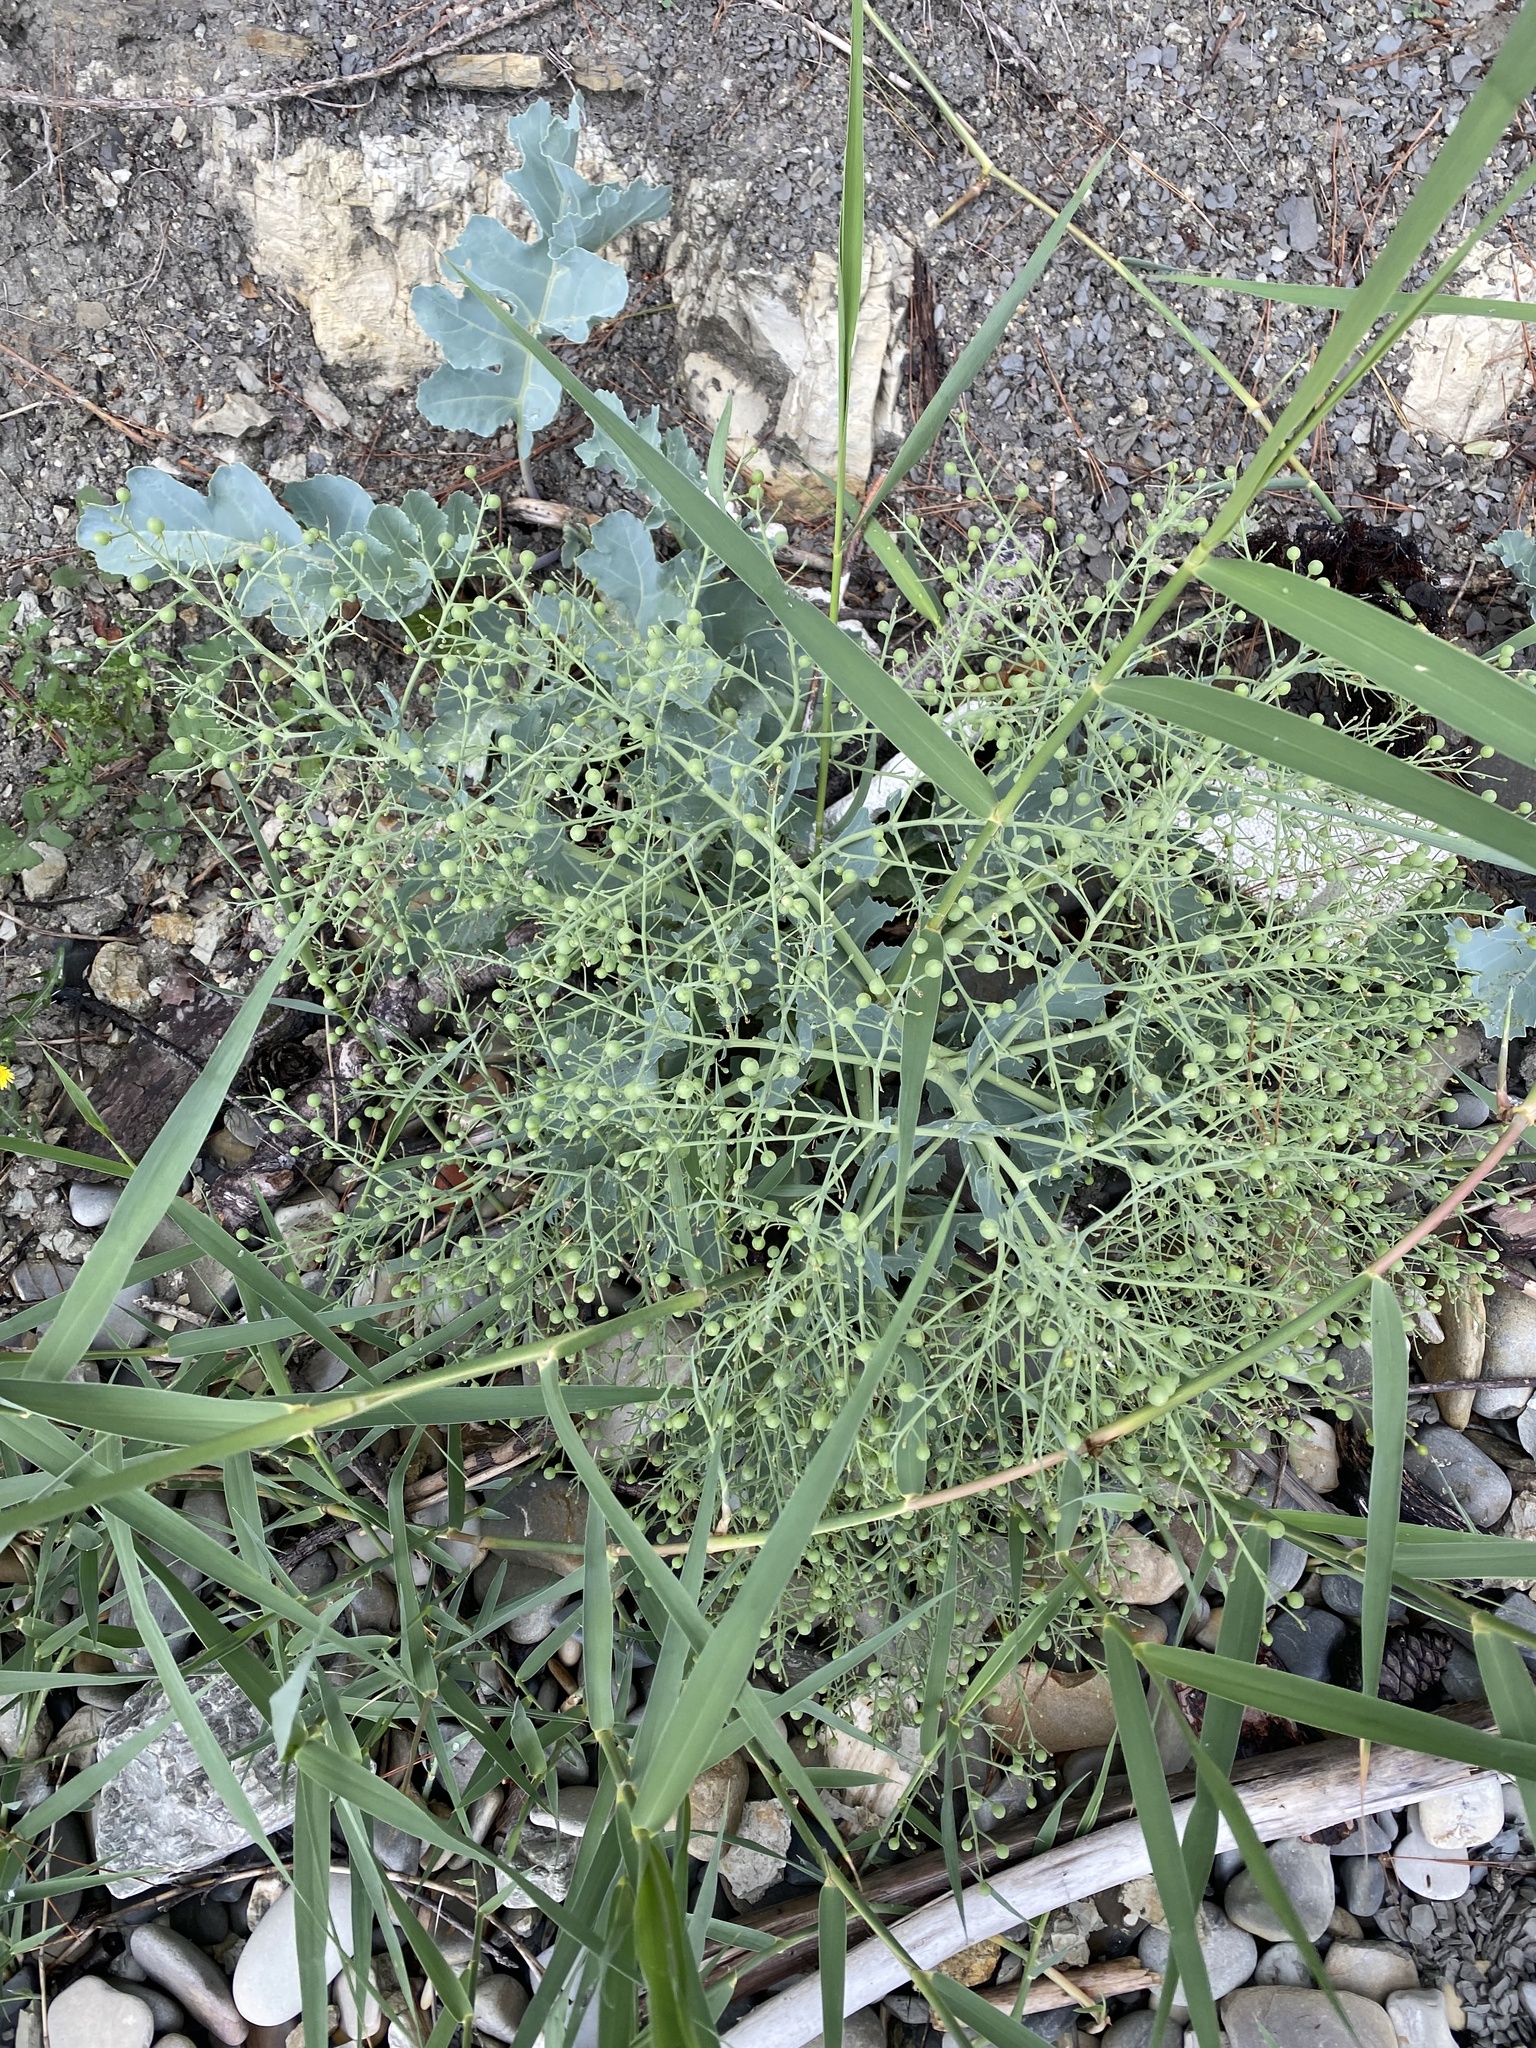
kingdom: Plantae
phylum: Tracheophyta
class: Magnoliopsida
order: Brassicales
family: Brassicaceae
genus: Crambe
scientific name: Crambe maritima
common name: Sea-kale
